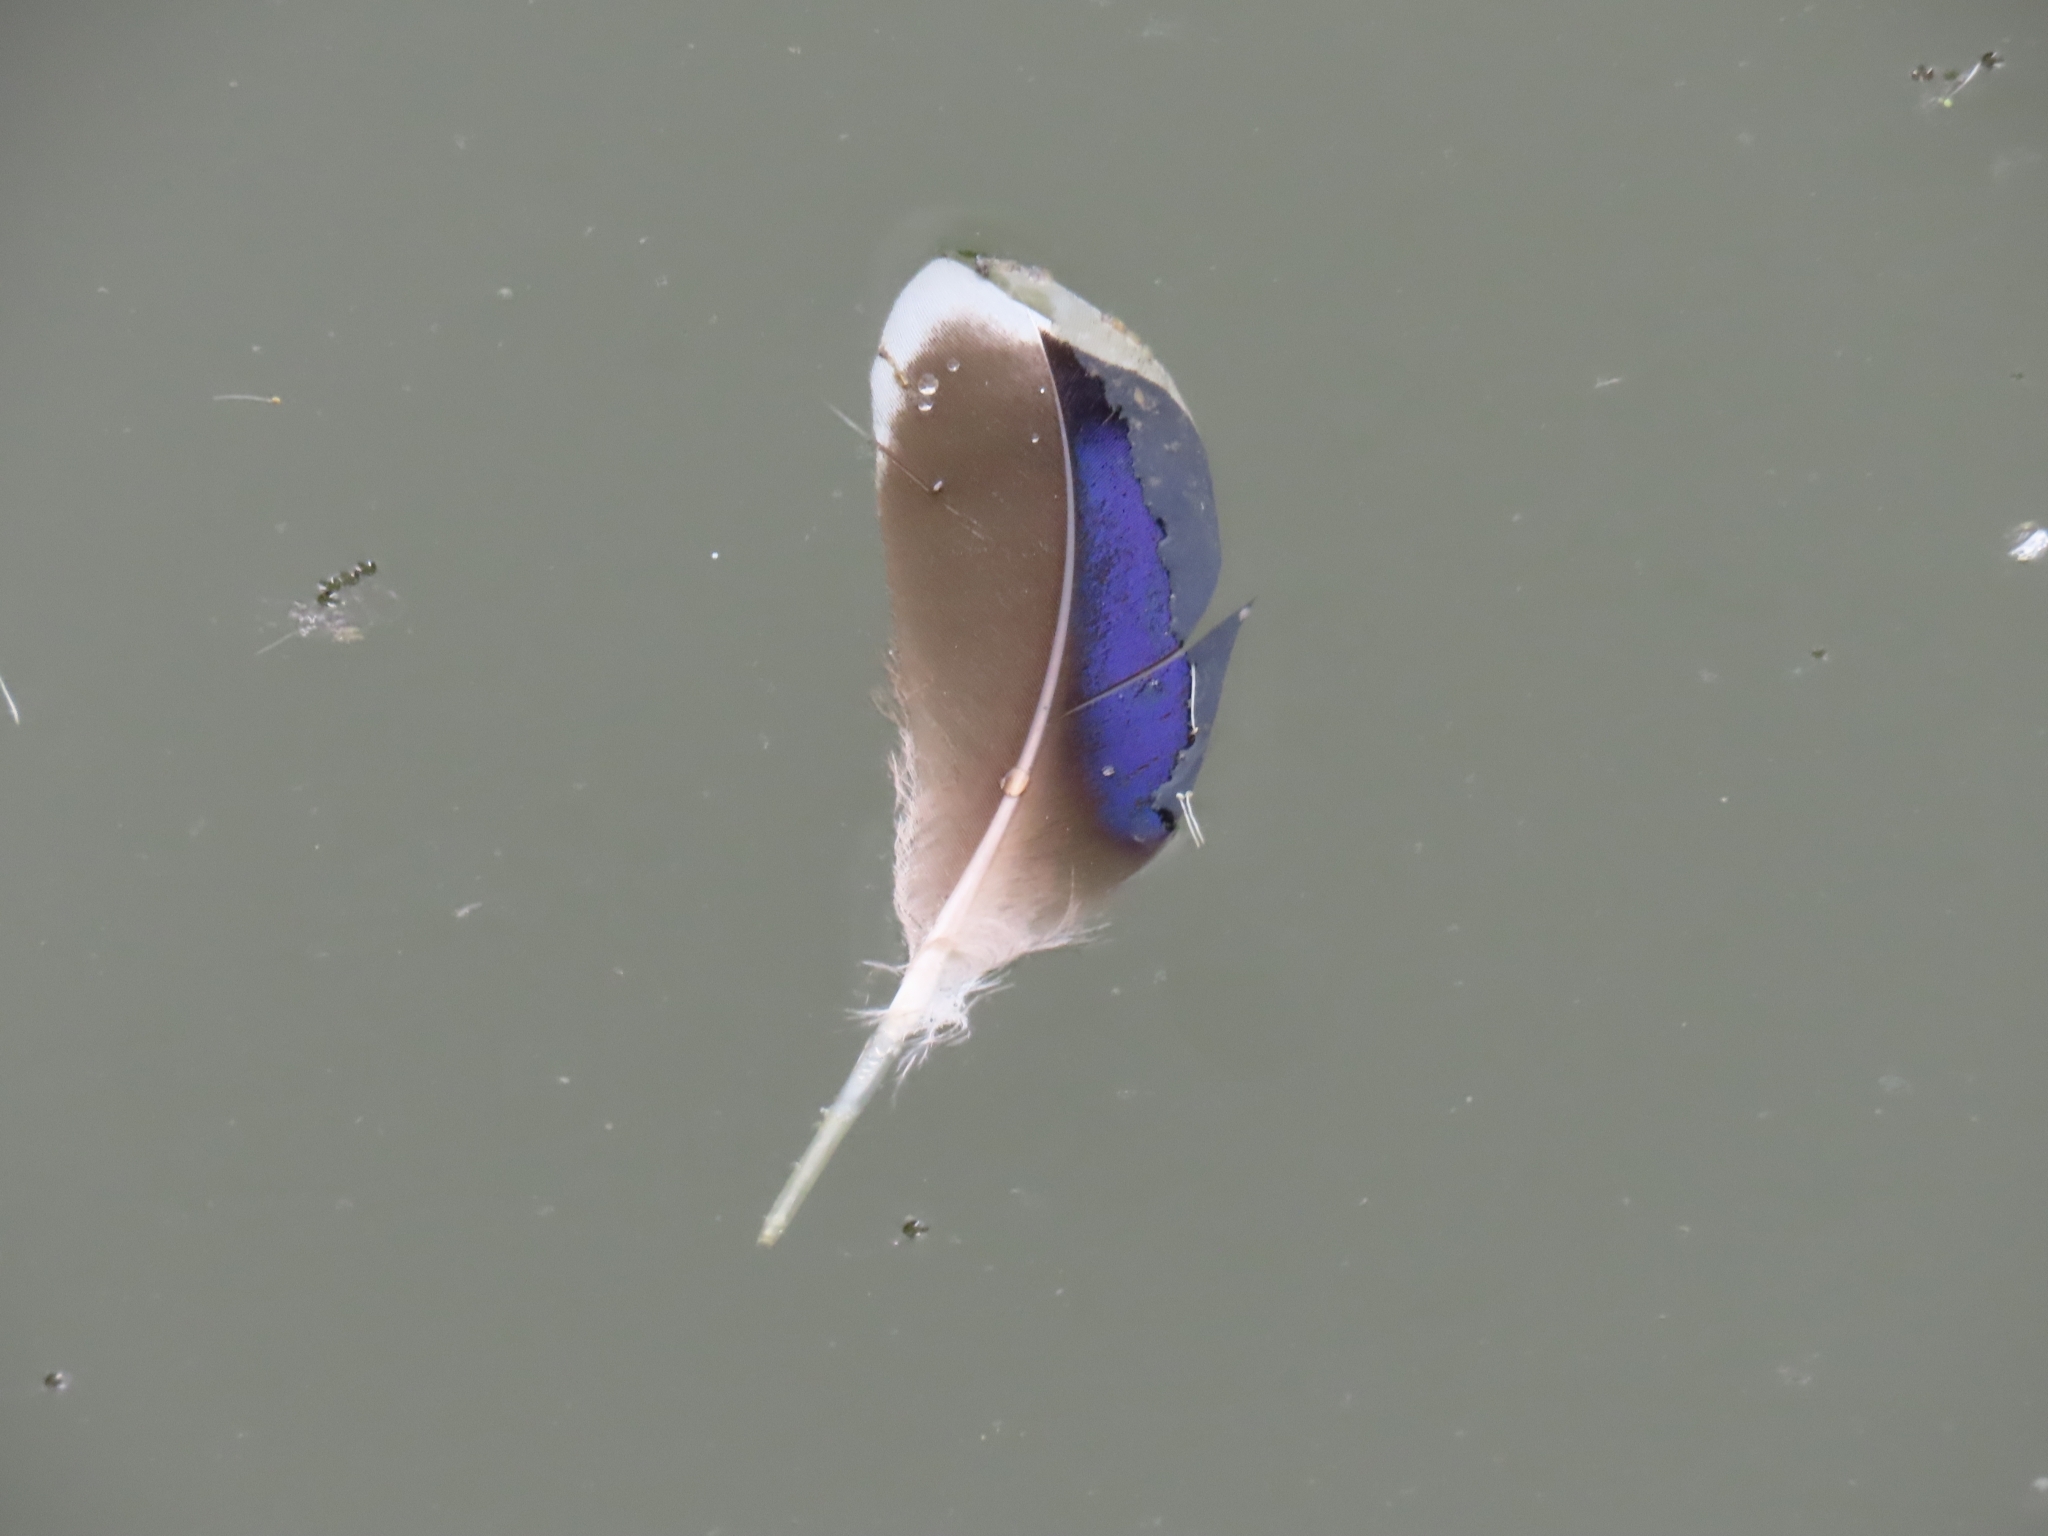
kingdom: Animalia
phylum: Chordata
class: Aves
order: Anseriformes
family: Anatidae
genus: Anas
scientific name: Anas platyrhynchos
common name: Mallard
